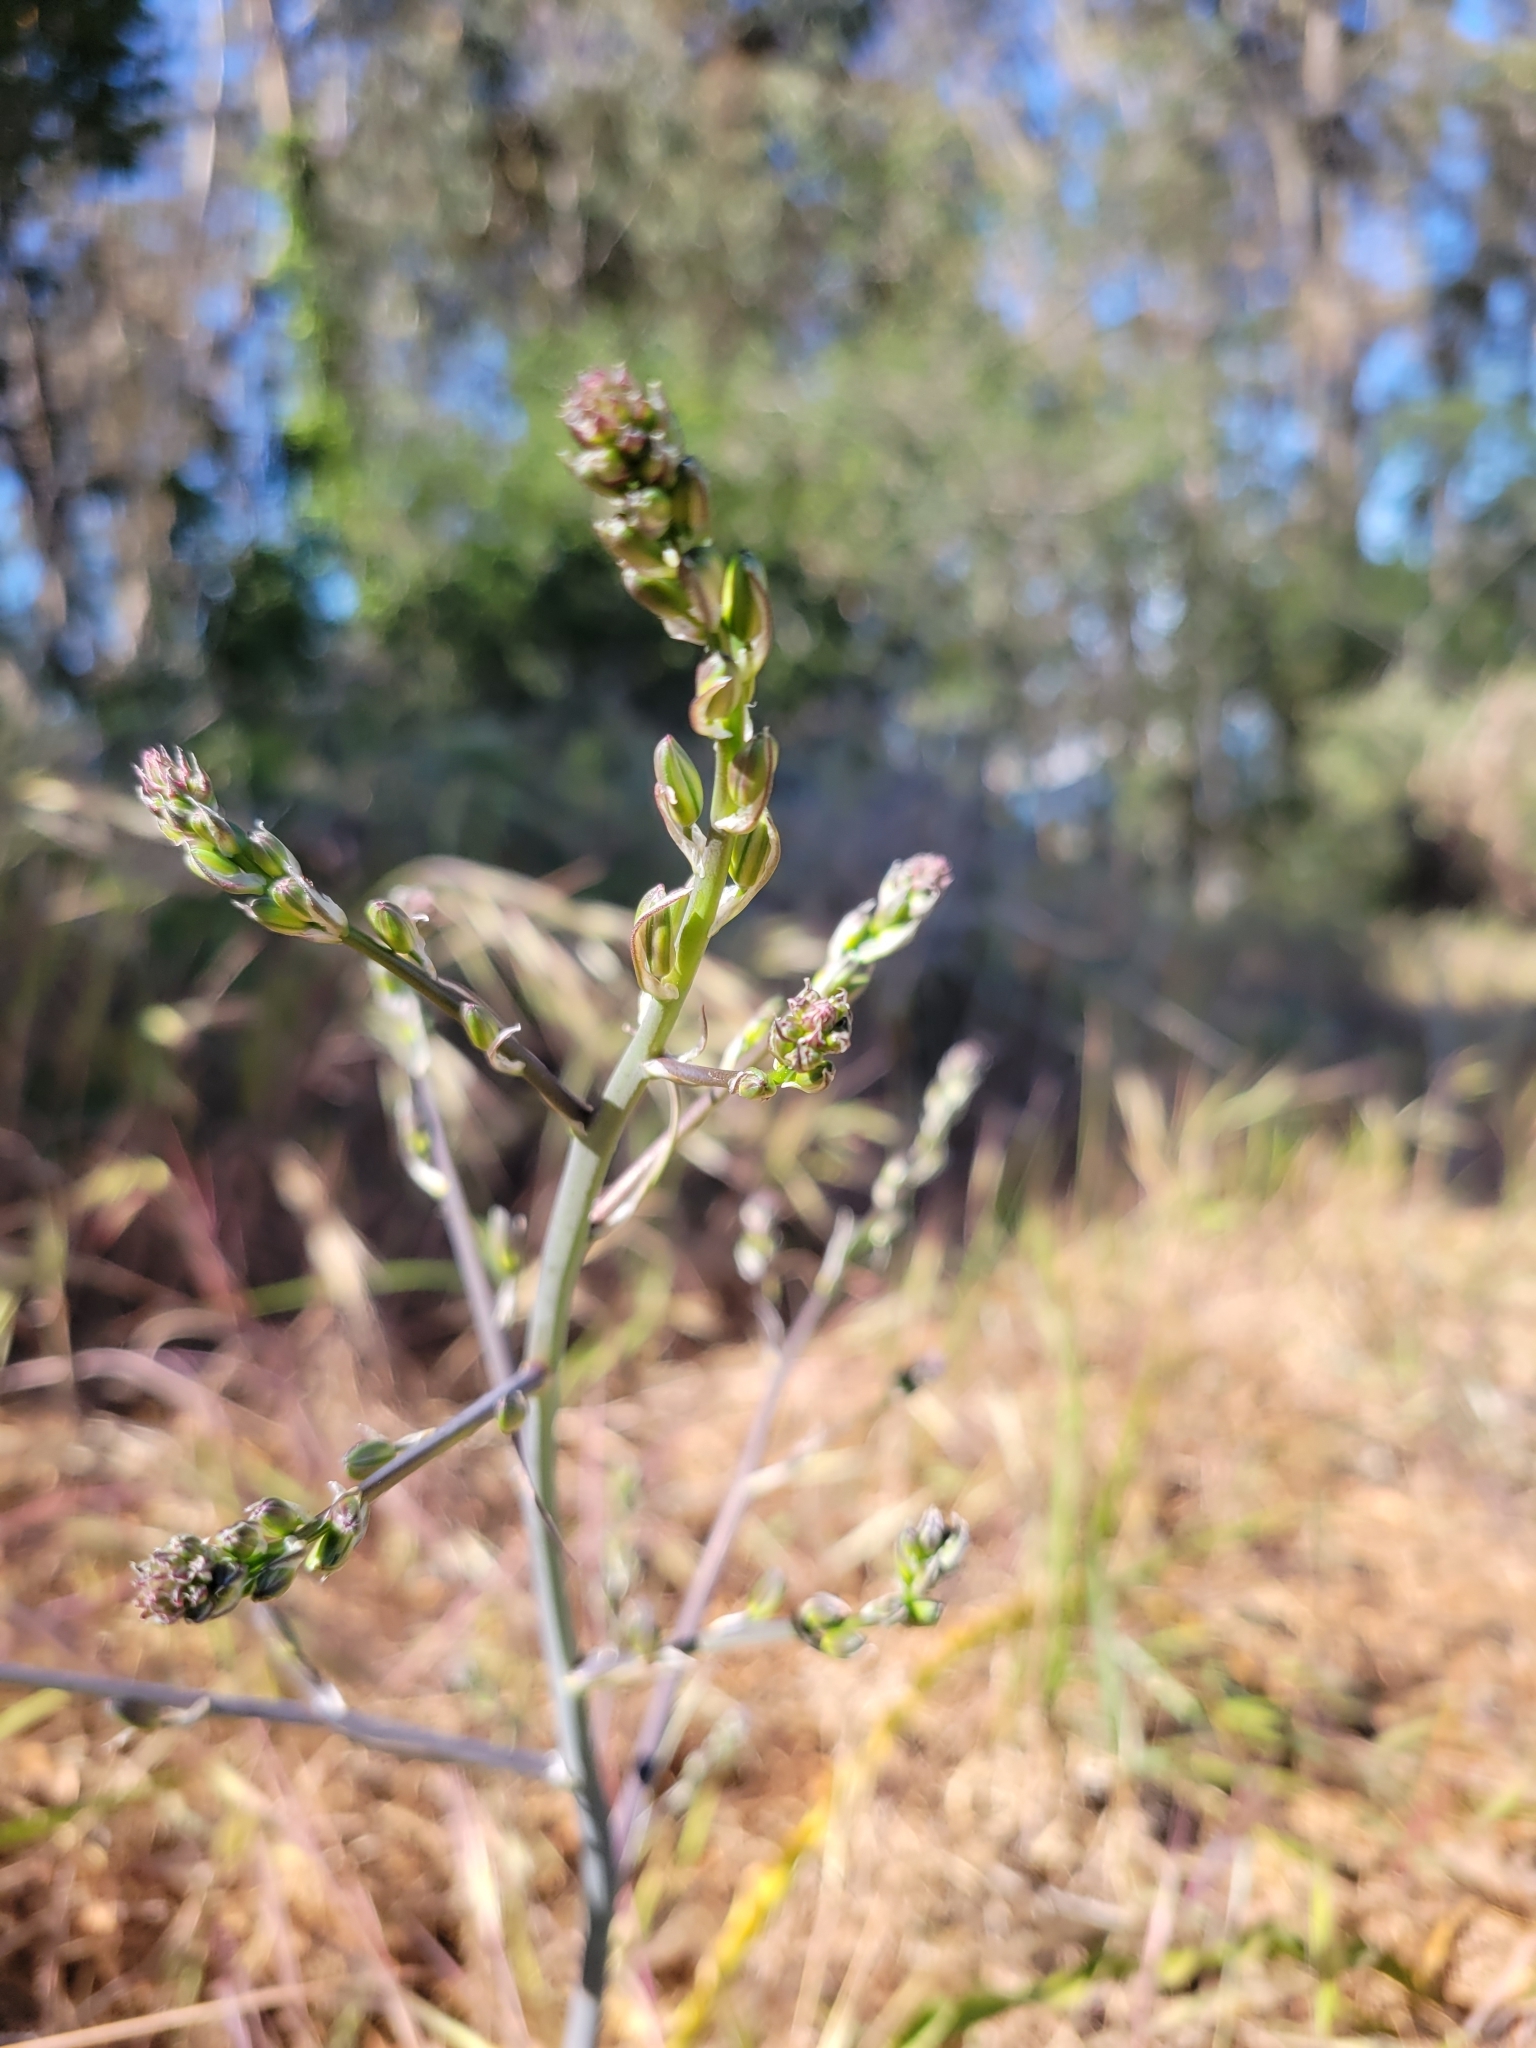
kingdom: Plantae
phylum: Tracheophyta
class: Liliopsida
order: Asparagales
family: Asparagaceae
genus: Chlorogalum
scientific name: Chlorogalum pomeridianum
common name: Amole
